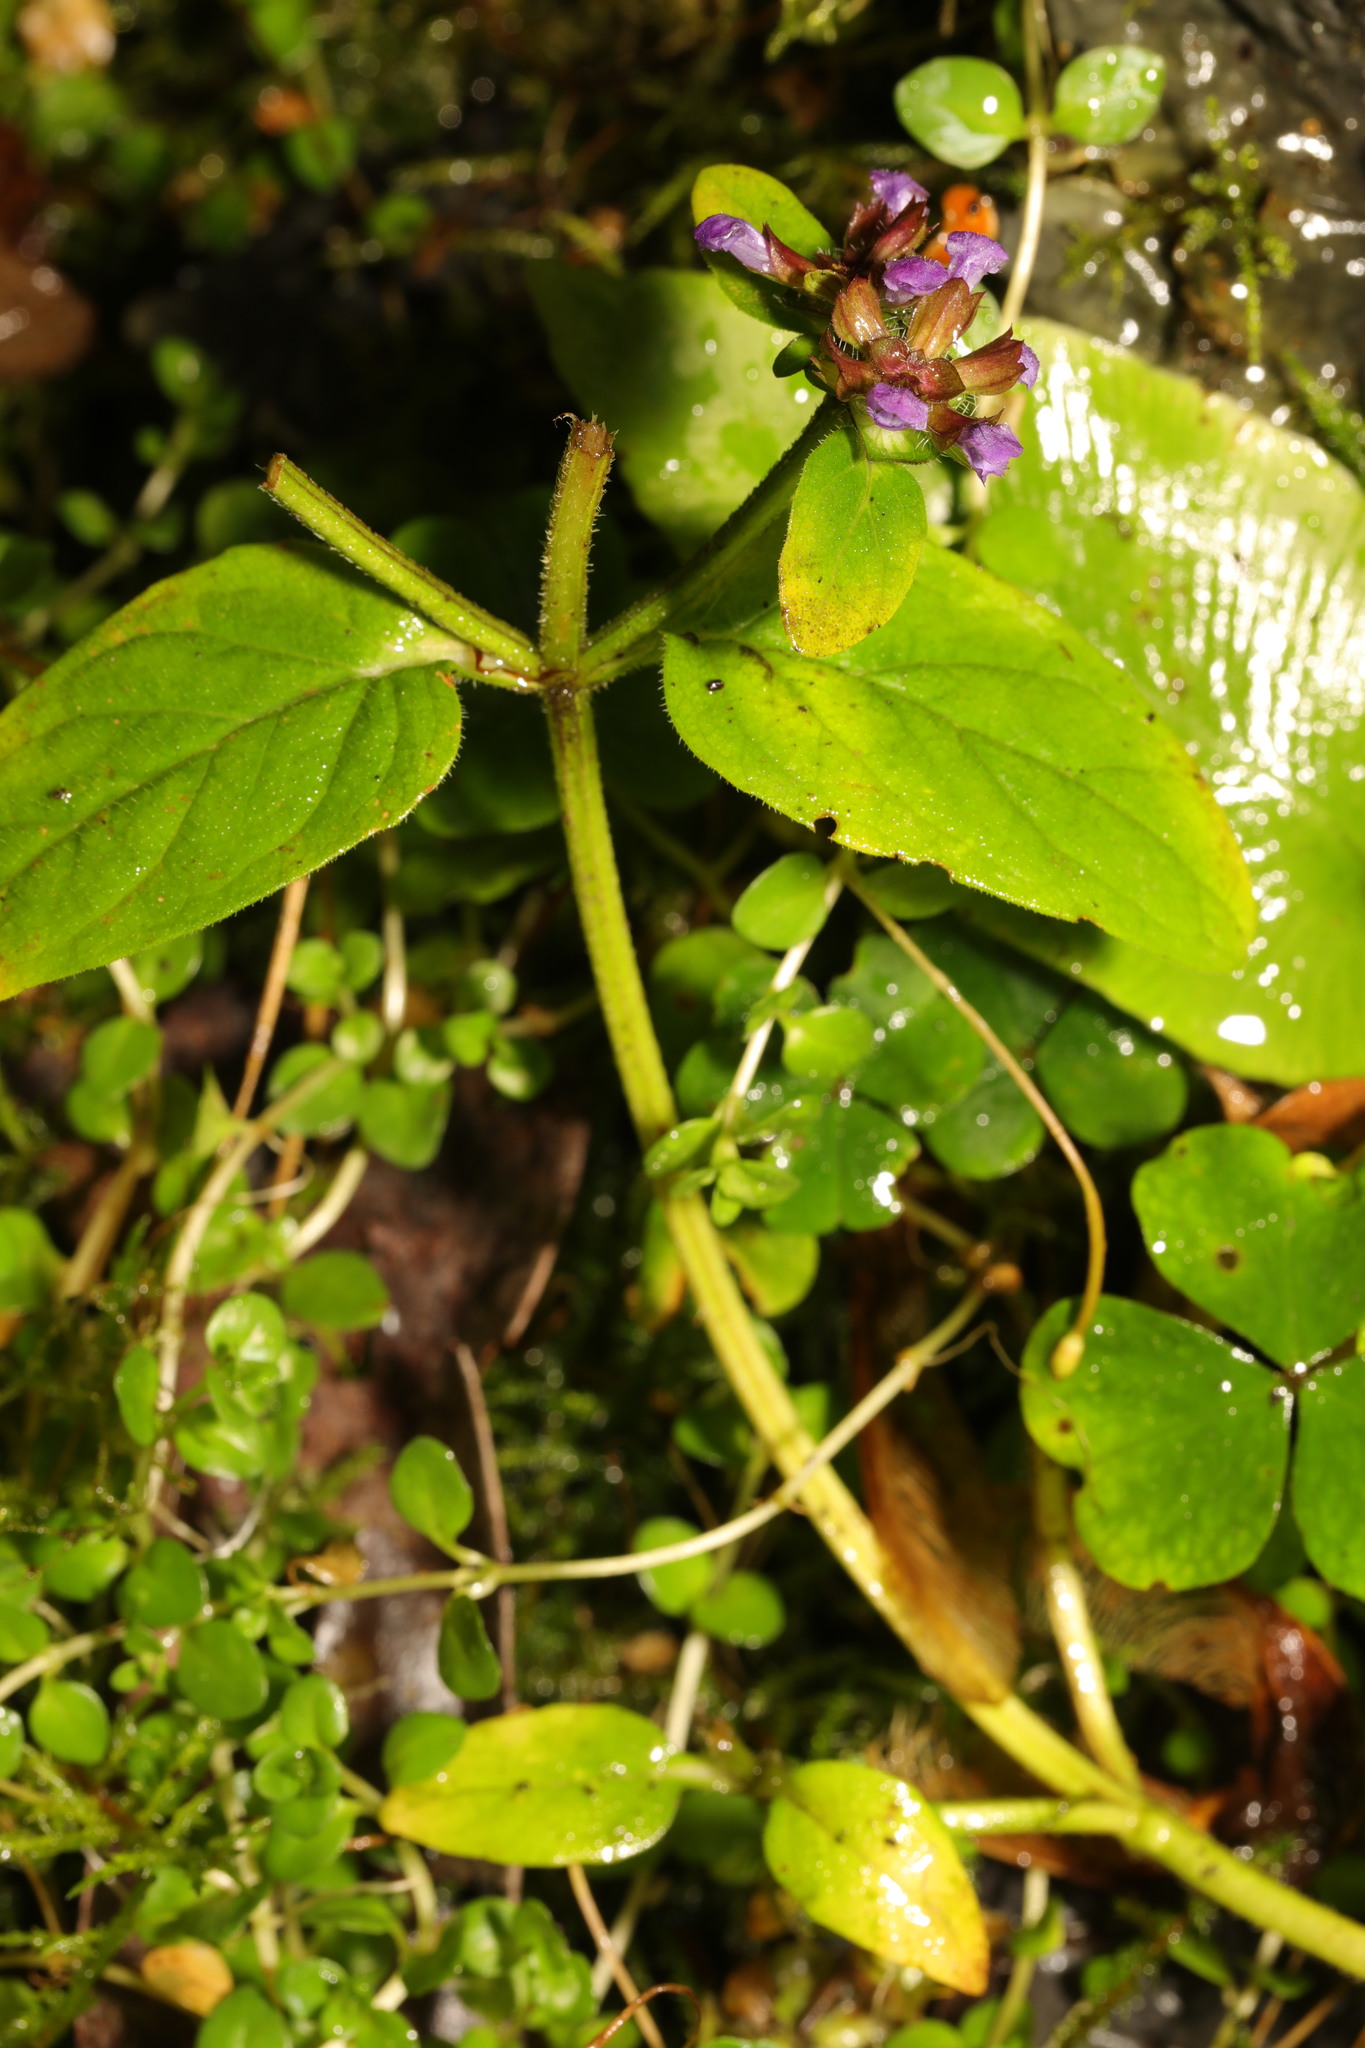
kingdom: Plantae
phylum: Tracheophyta
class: Magnoliopsida
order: Lamiales
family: Lamiaceae
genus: Prunella
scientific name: Prunella vulgaris
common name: Heal-all
